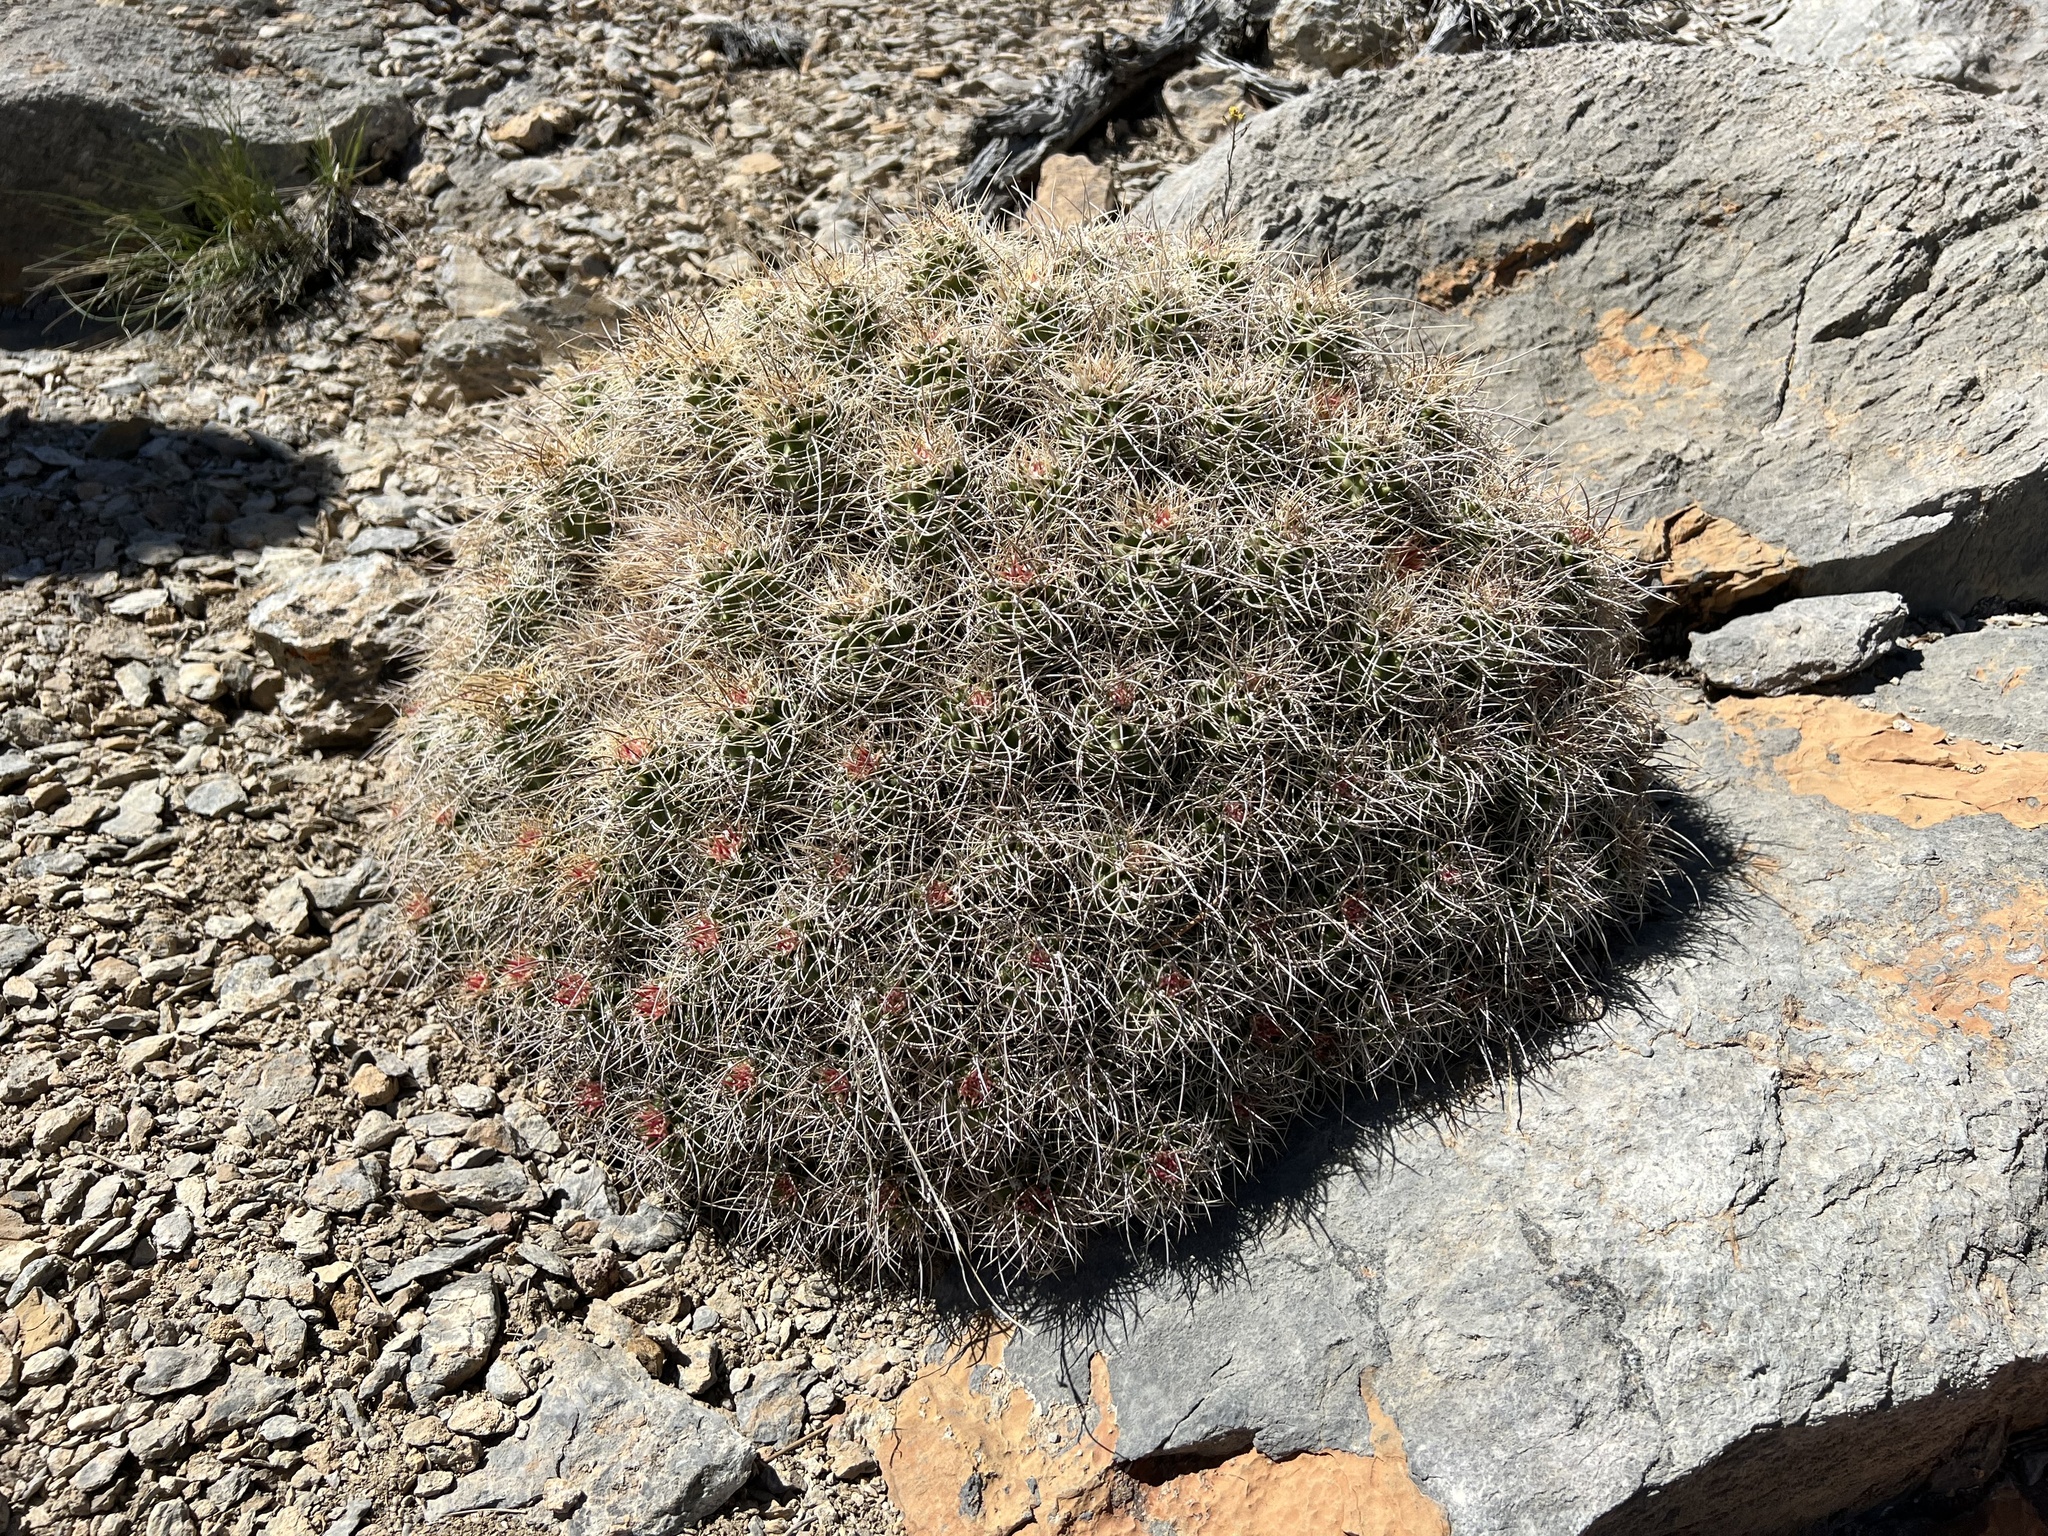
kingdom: Plantae
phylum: Tracheophyta
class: Magnoliopsida
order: Caryophyllales
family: Cactaceae
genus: Echinocereus
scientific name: Echinocereus triglochidiatus
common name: Claretcup hedgehog
